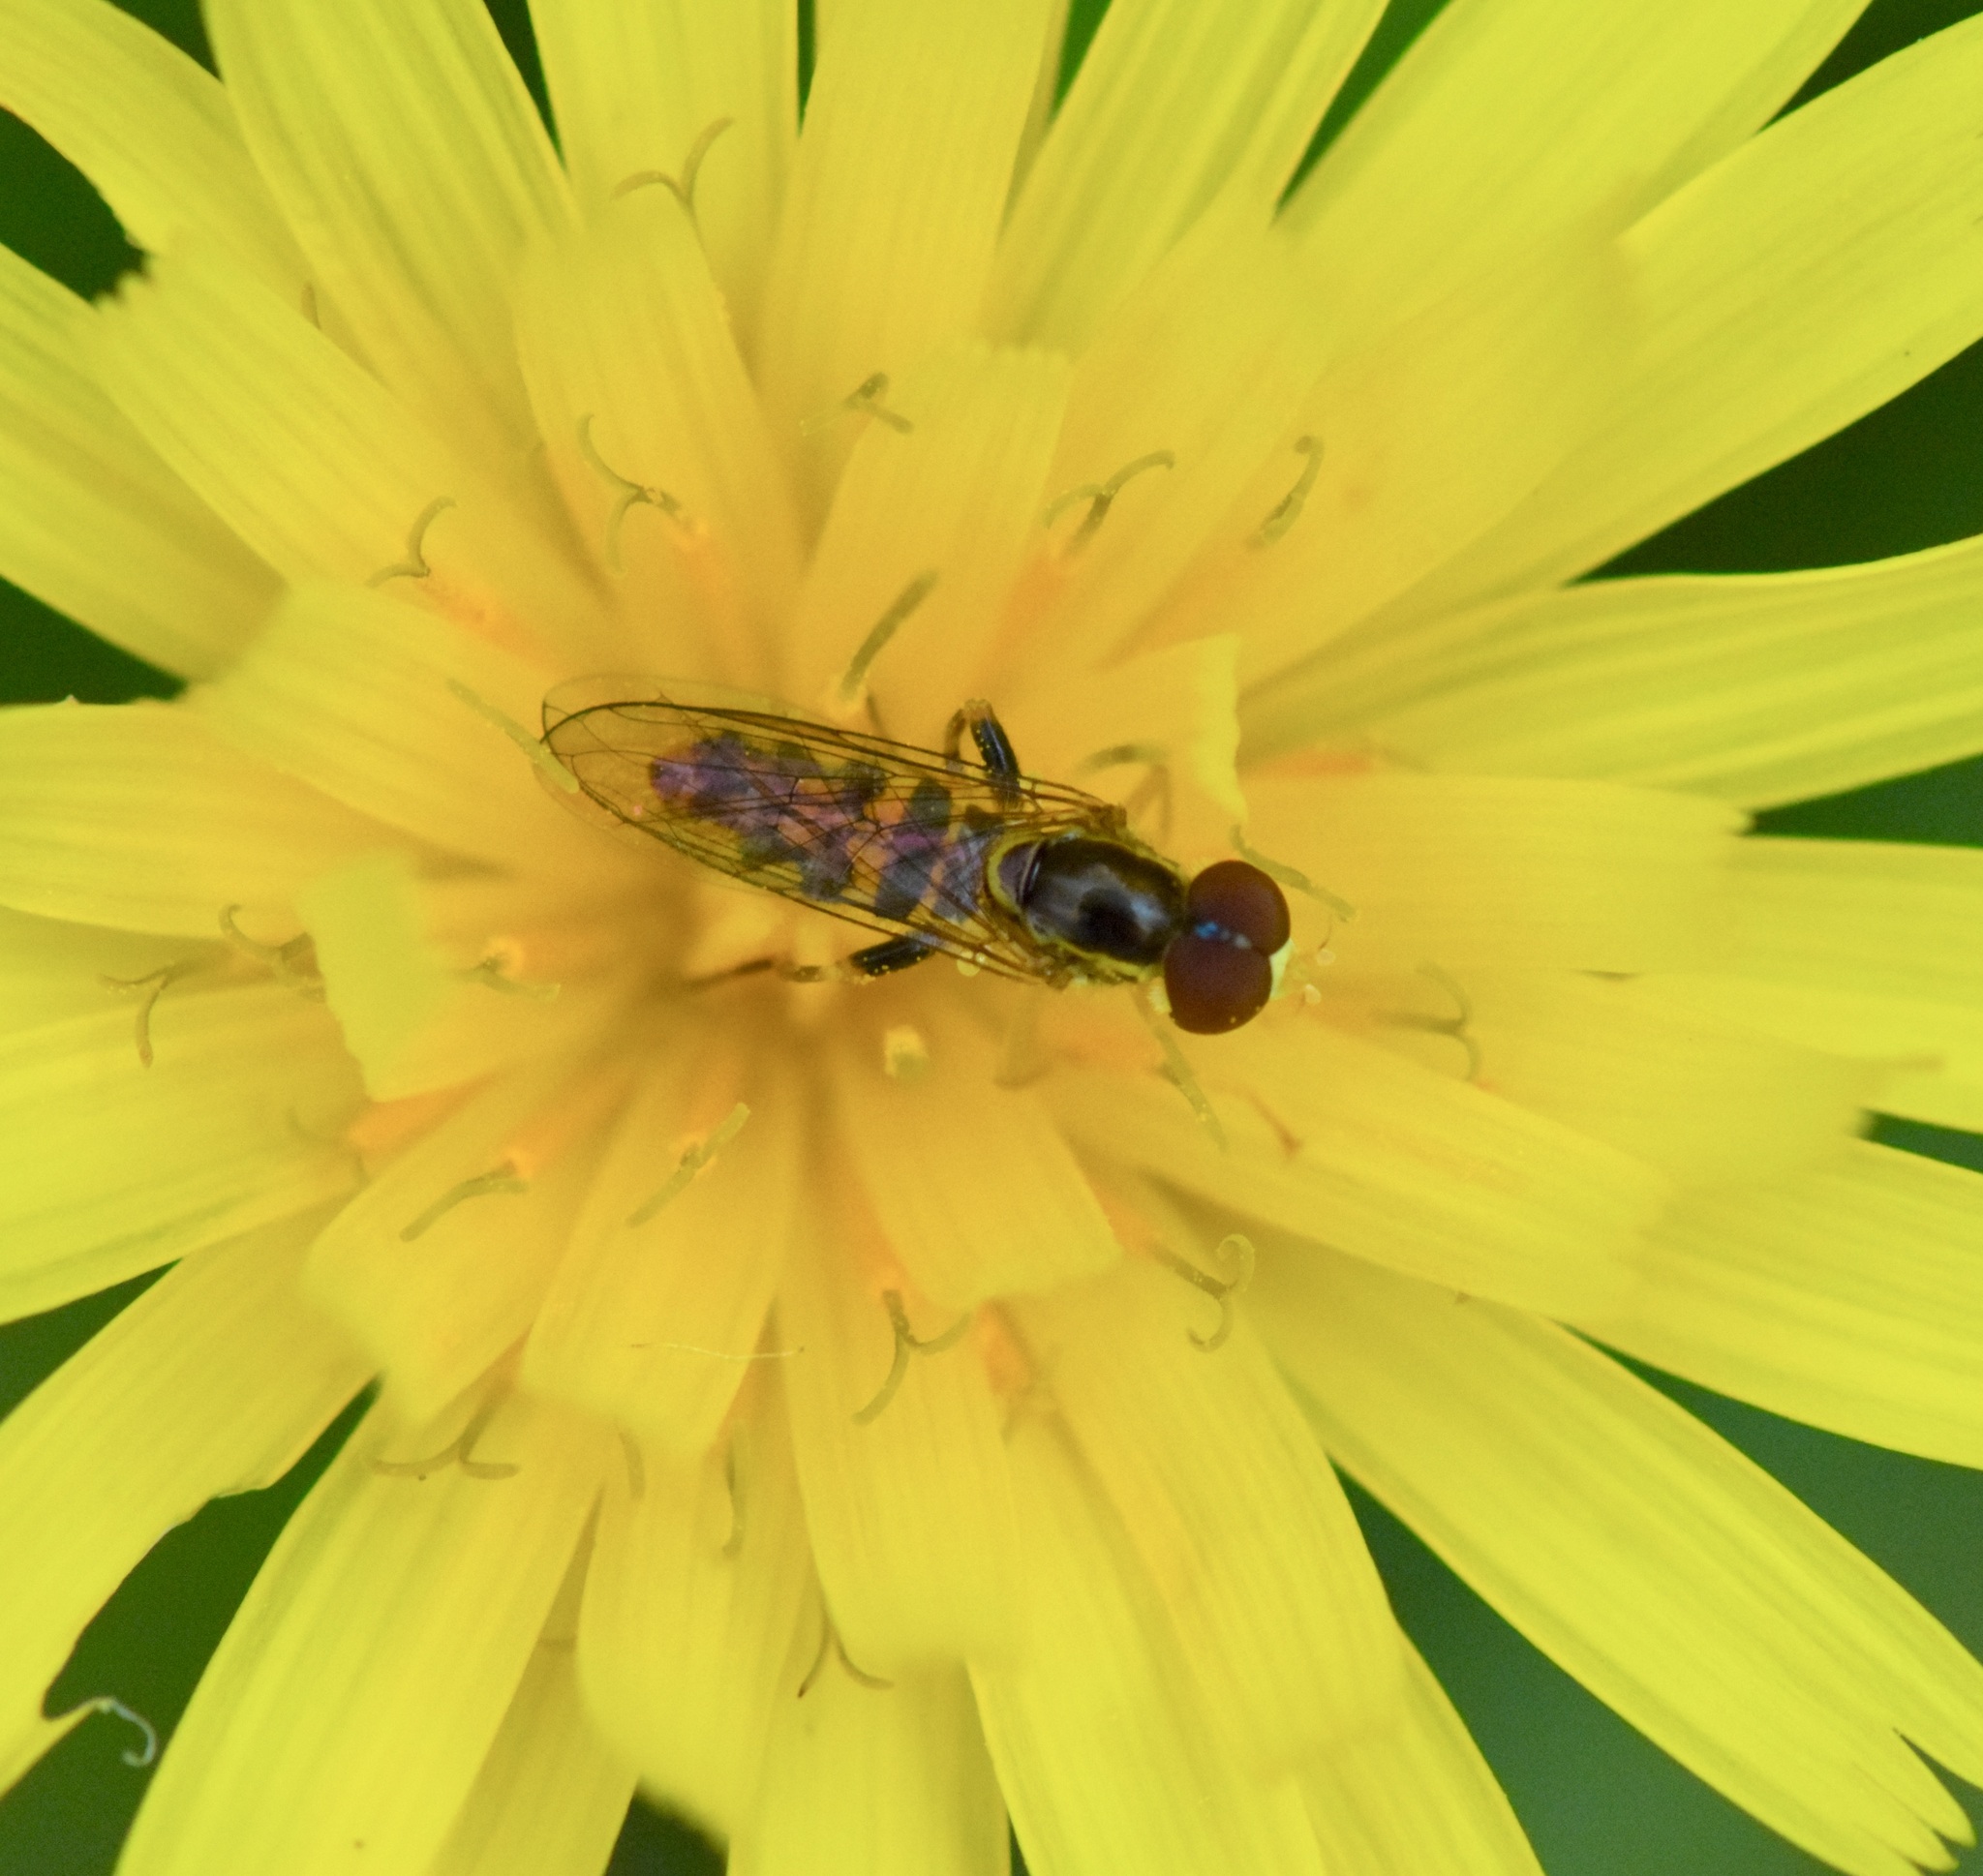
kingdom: Animalia
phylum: Arthropoda
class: Insecta
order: Diptera
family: Syrphidae
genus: Toxomerus
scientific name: Toxomerus geminatus
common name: Eastern calligrapher
